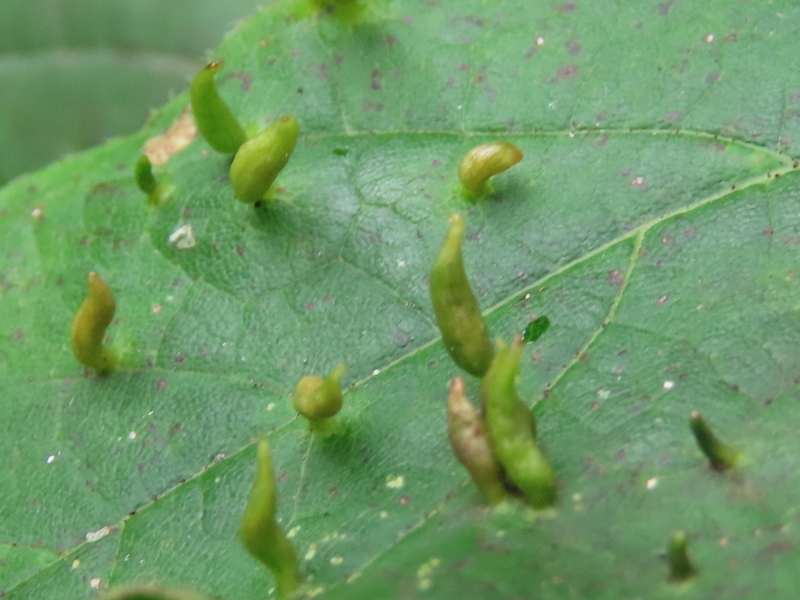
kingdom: Animalia
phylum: Arthropoda
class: Arachnida
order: Trombidiformes
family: Eriophyidae
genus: Vasates
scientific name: Vasates aceriscrumena
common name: Maple spindle gall mite
